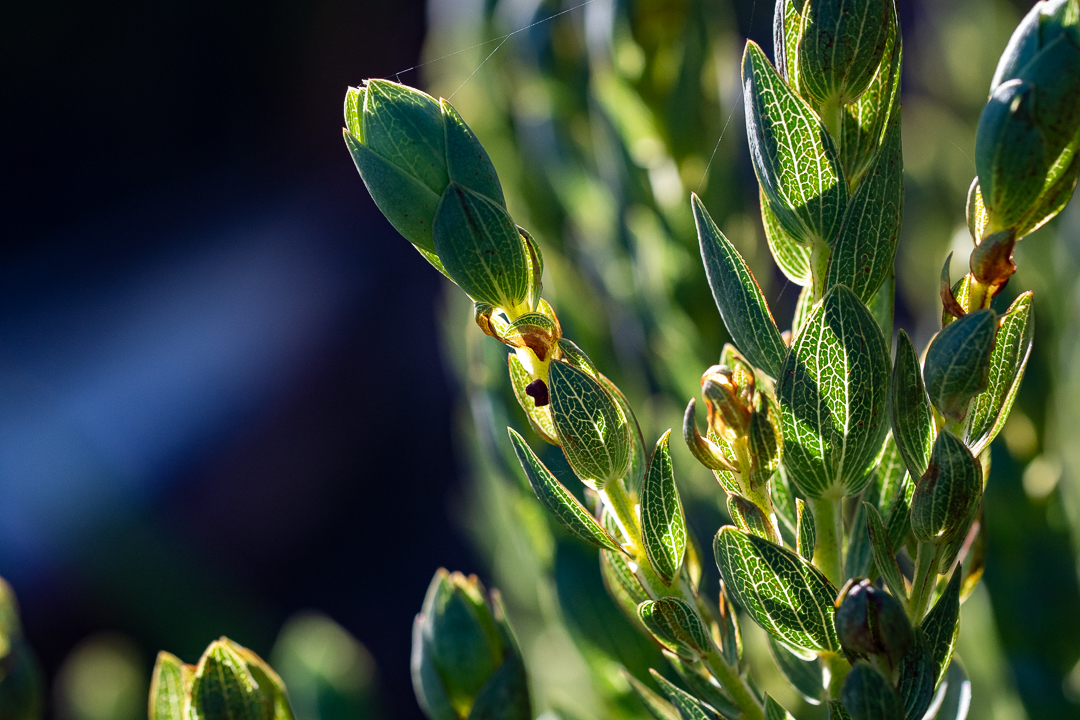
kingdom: Plantae
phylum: Tracheophyta
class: Magnoliopsida
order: Fabales
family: Fabaceae
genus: Aspalathus
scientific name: Aspalathus elliptica
